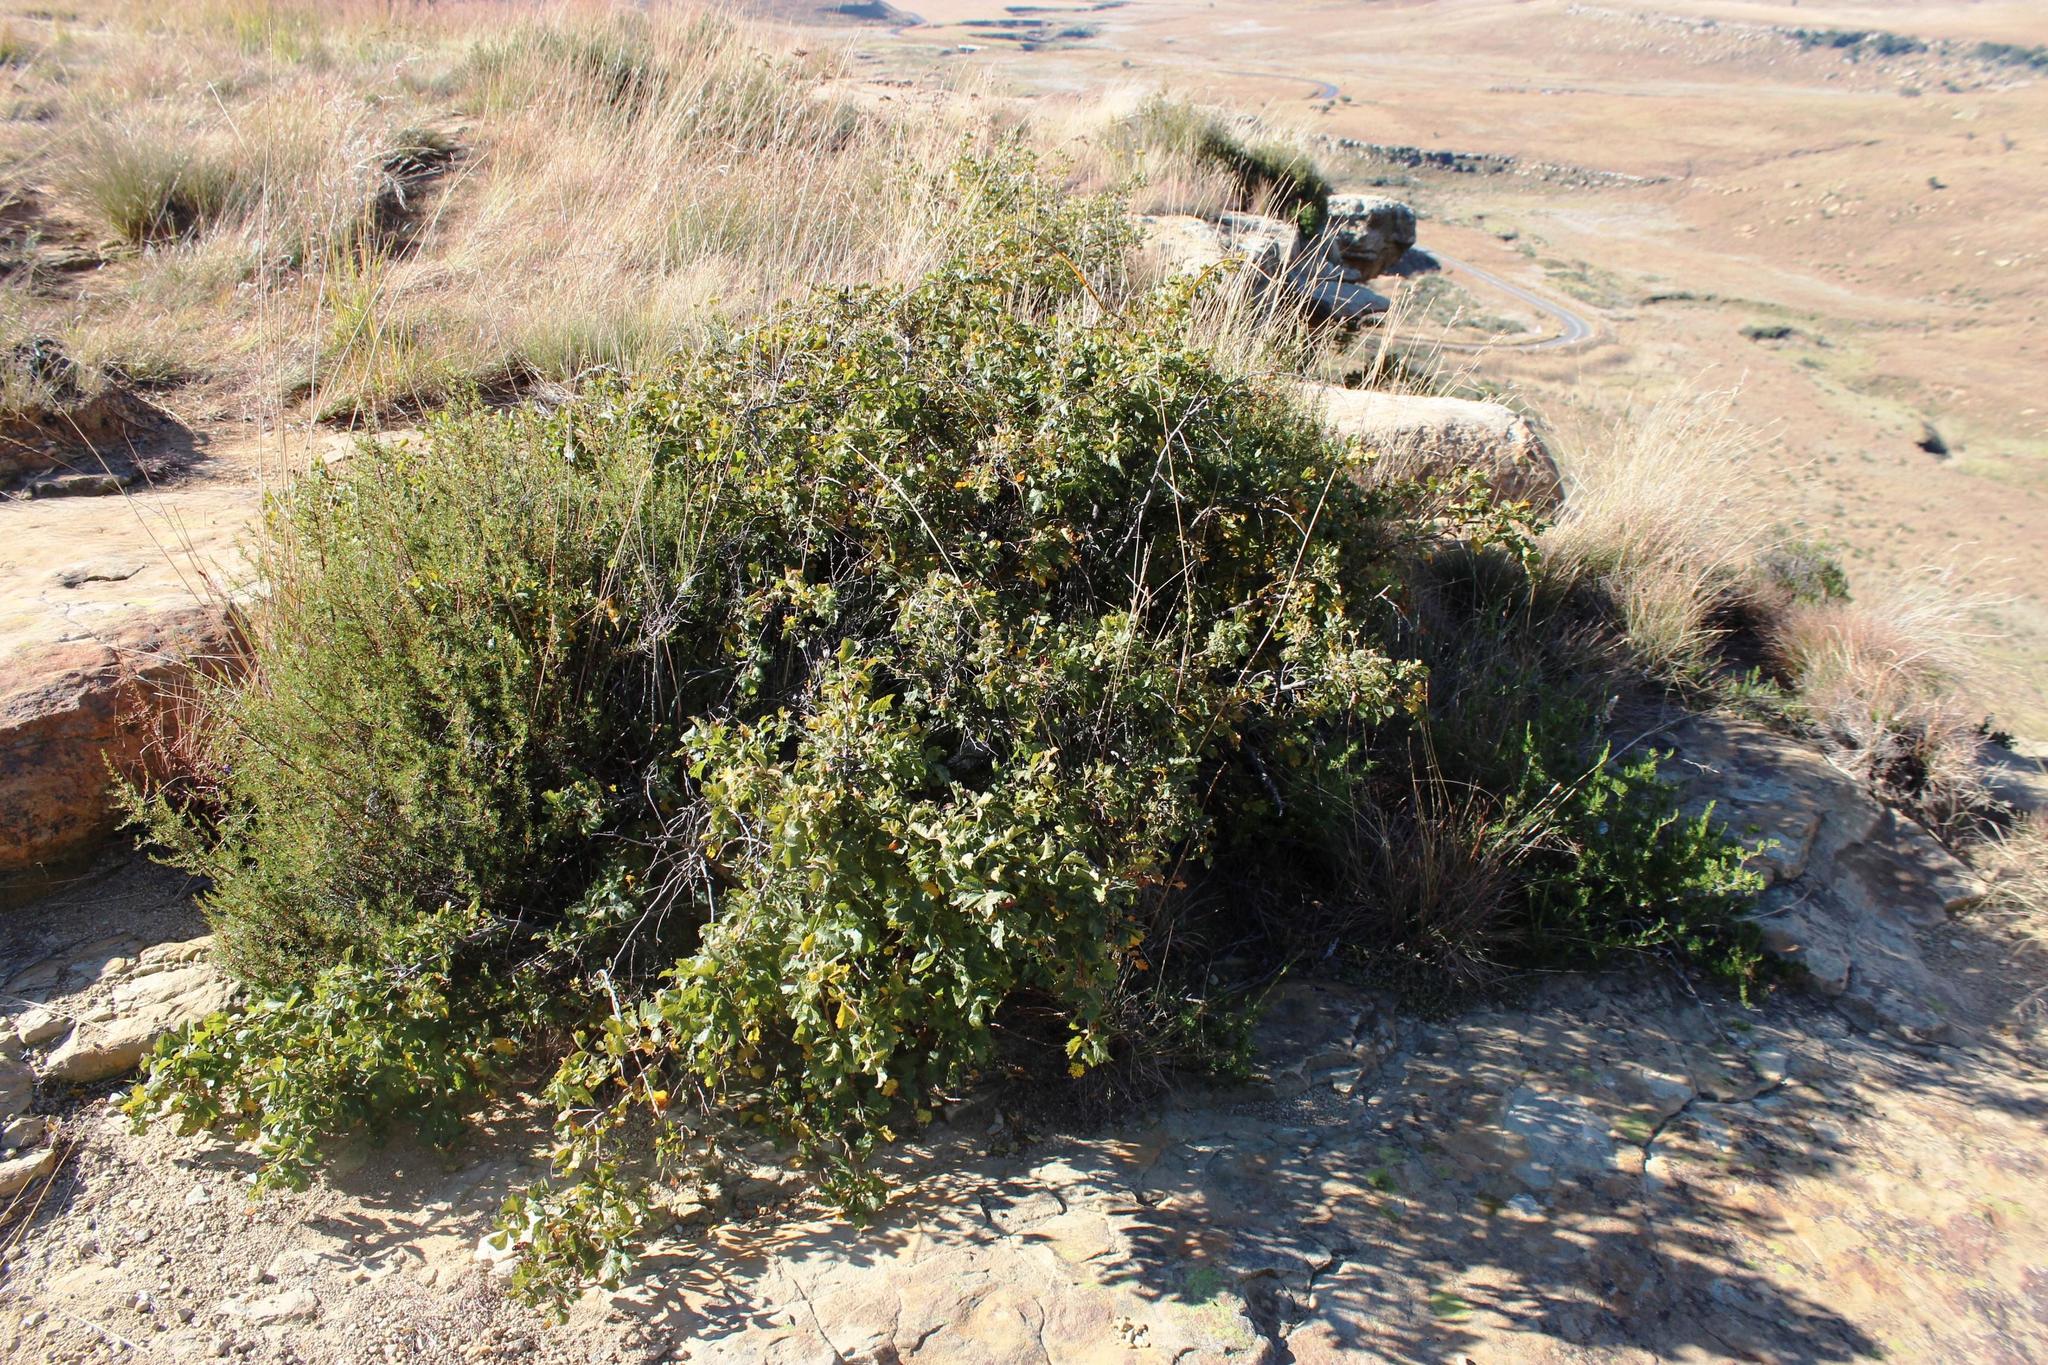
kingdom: Plantae
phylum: Tracheophyta
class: Magnoliopsida
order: Sapindales
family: Anacardiaceae
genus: Searsia
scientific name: Searsia dentata
